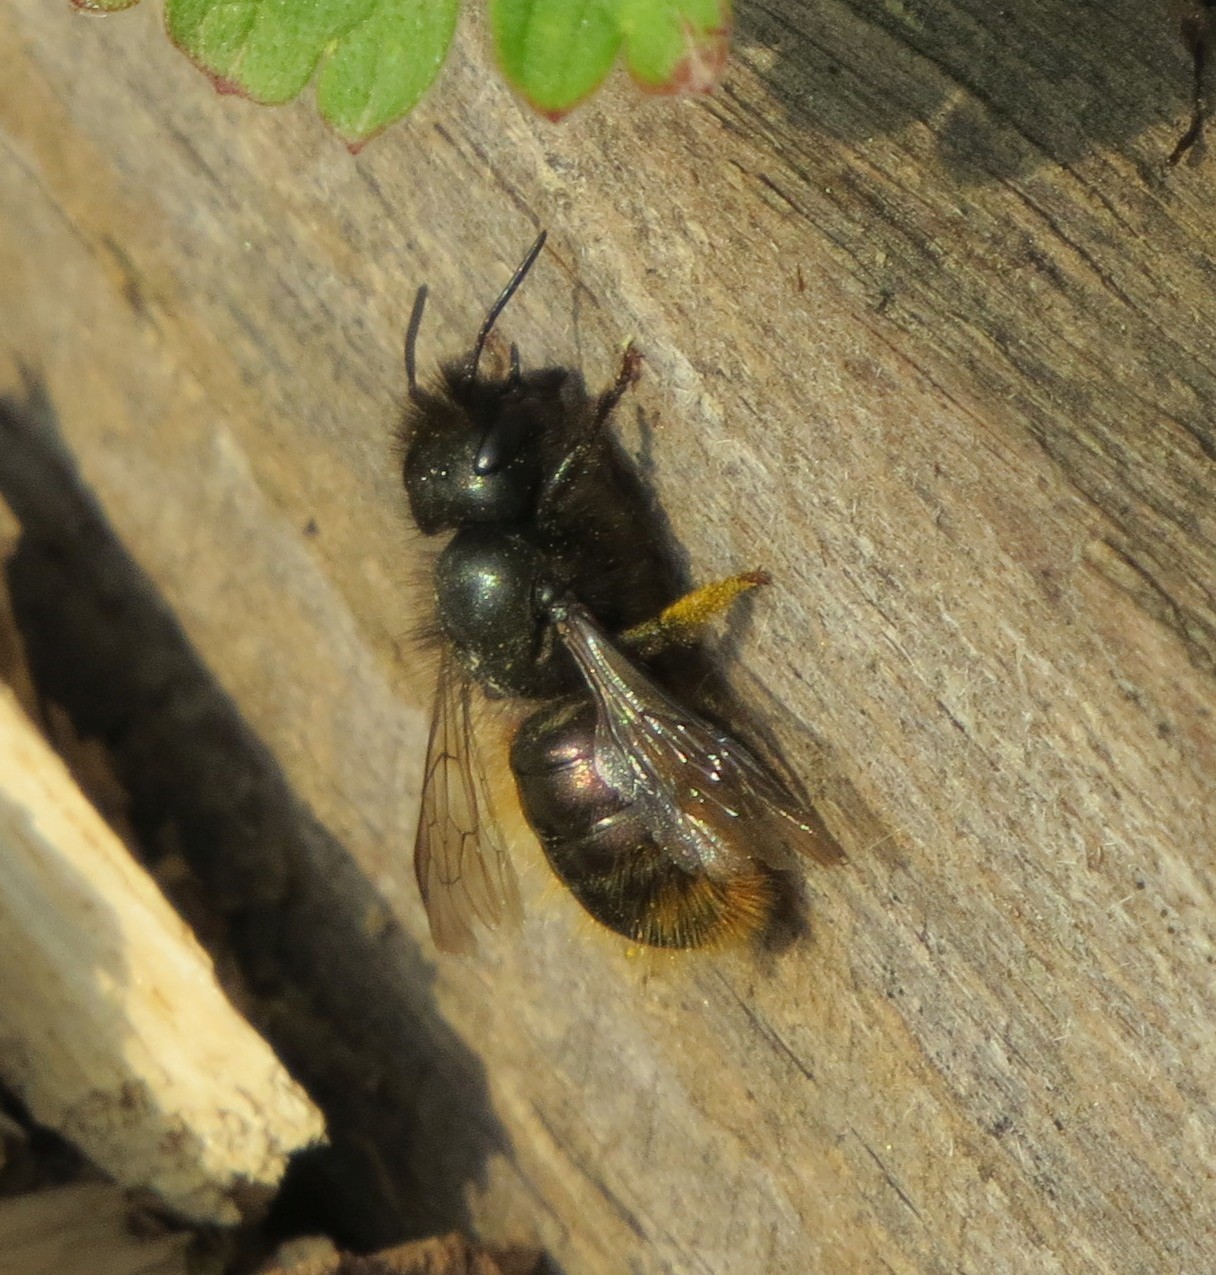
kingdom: Animalia
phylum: Arthropoda
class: Insecta
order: Hymenoptera
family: Megachilidae
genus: Osmia
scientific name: Osmia cornuta
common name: Mason bee
